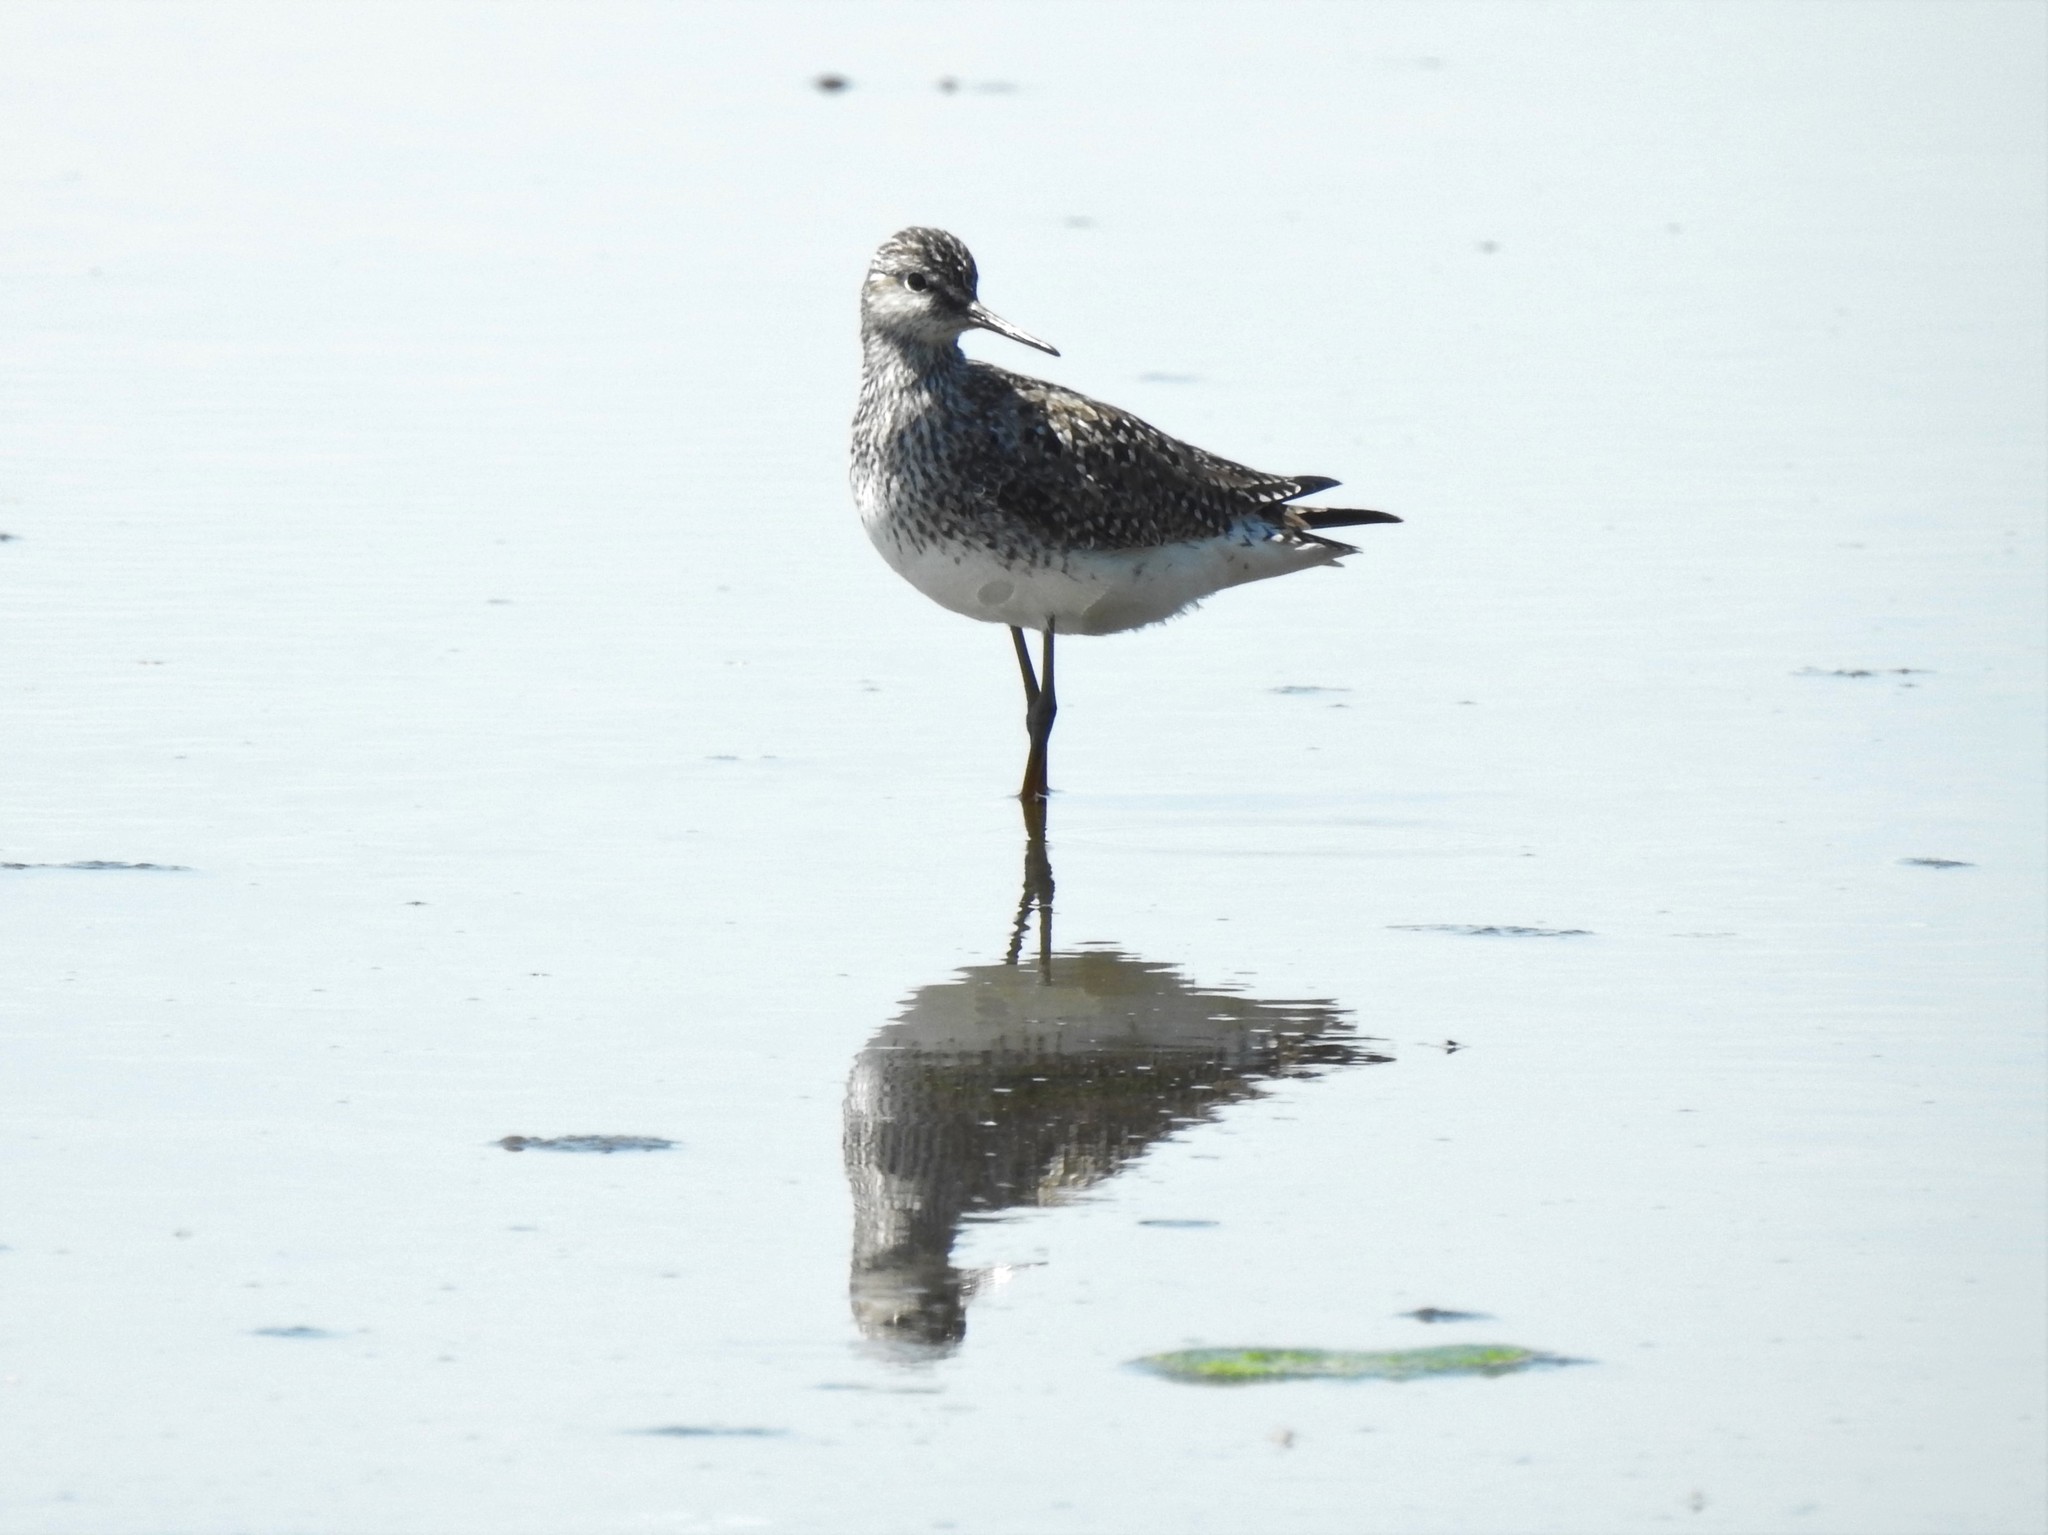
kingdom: Animalia
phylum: Chordata
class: Aves
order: Charadriiformes
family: Scolopacidae
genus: Tringa
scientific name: Tringa flavipes
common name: Lesser yellowlegs
